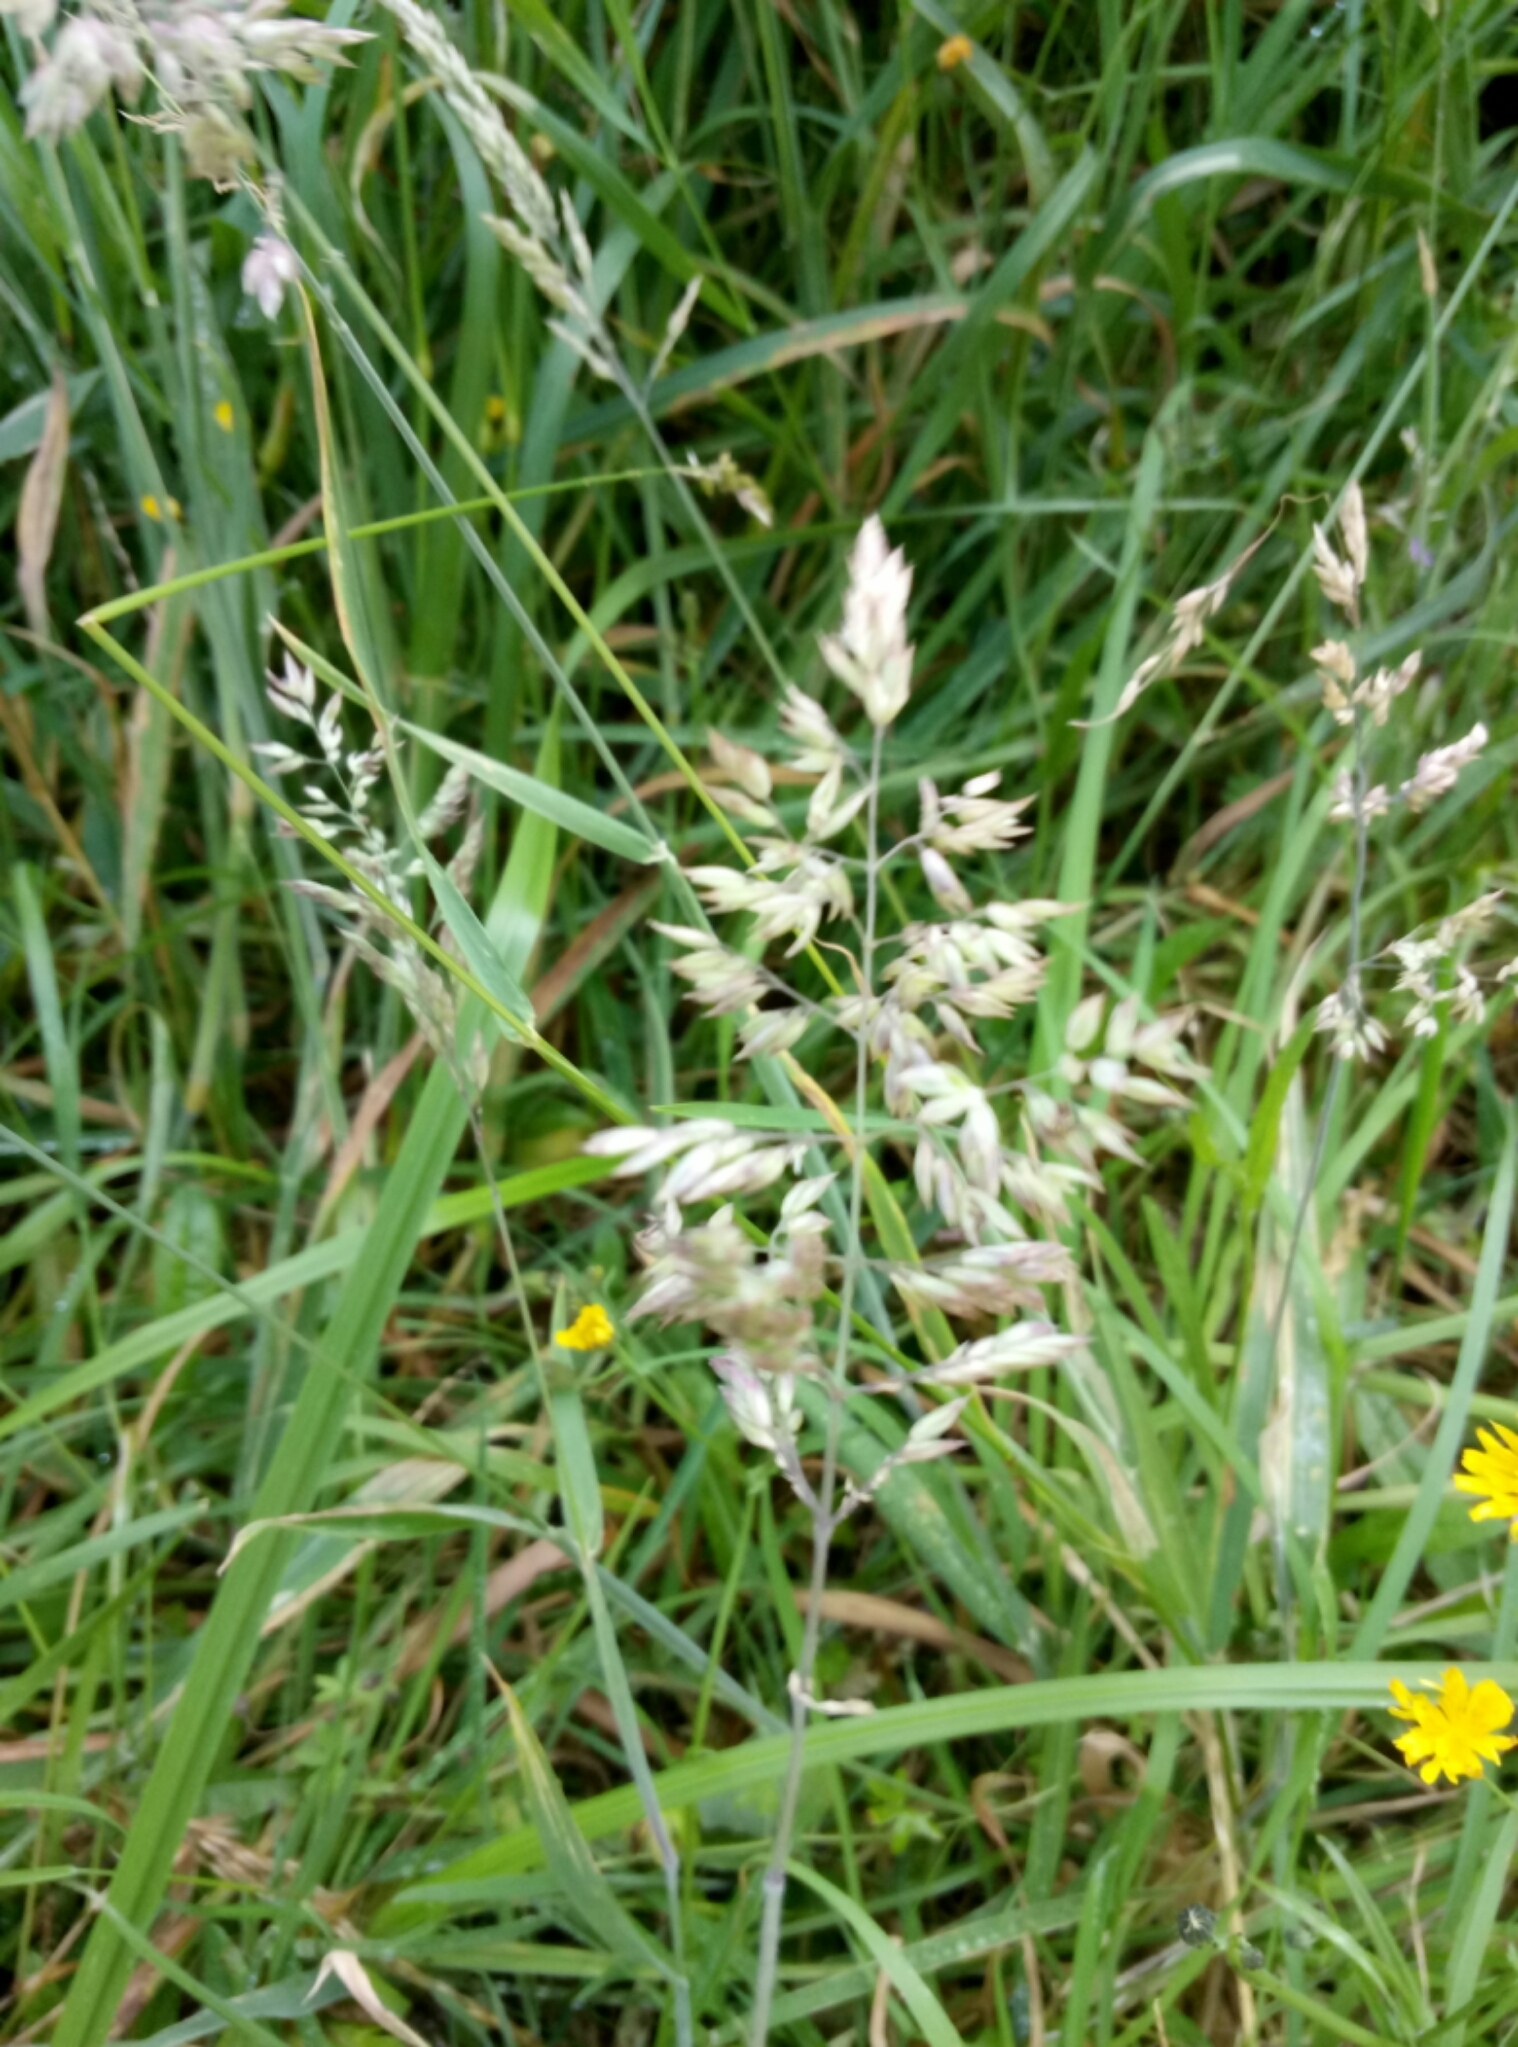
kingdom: Plantae
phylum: Tracheophyta
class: Liliopsida
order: Poales
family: Poaceae
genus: Holcus
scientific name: Holcus lanatus
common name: Yorkshire-fog
